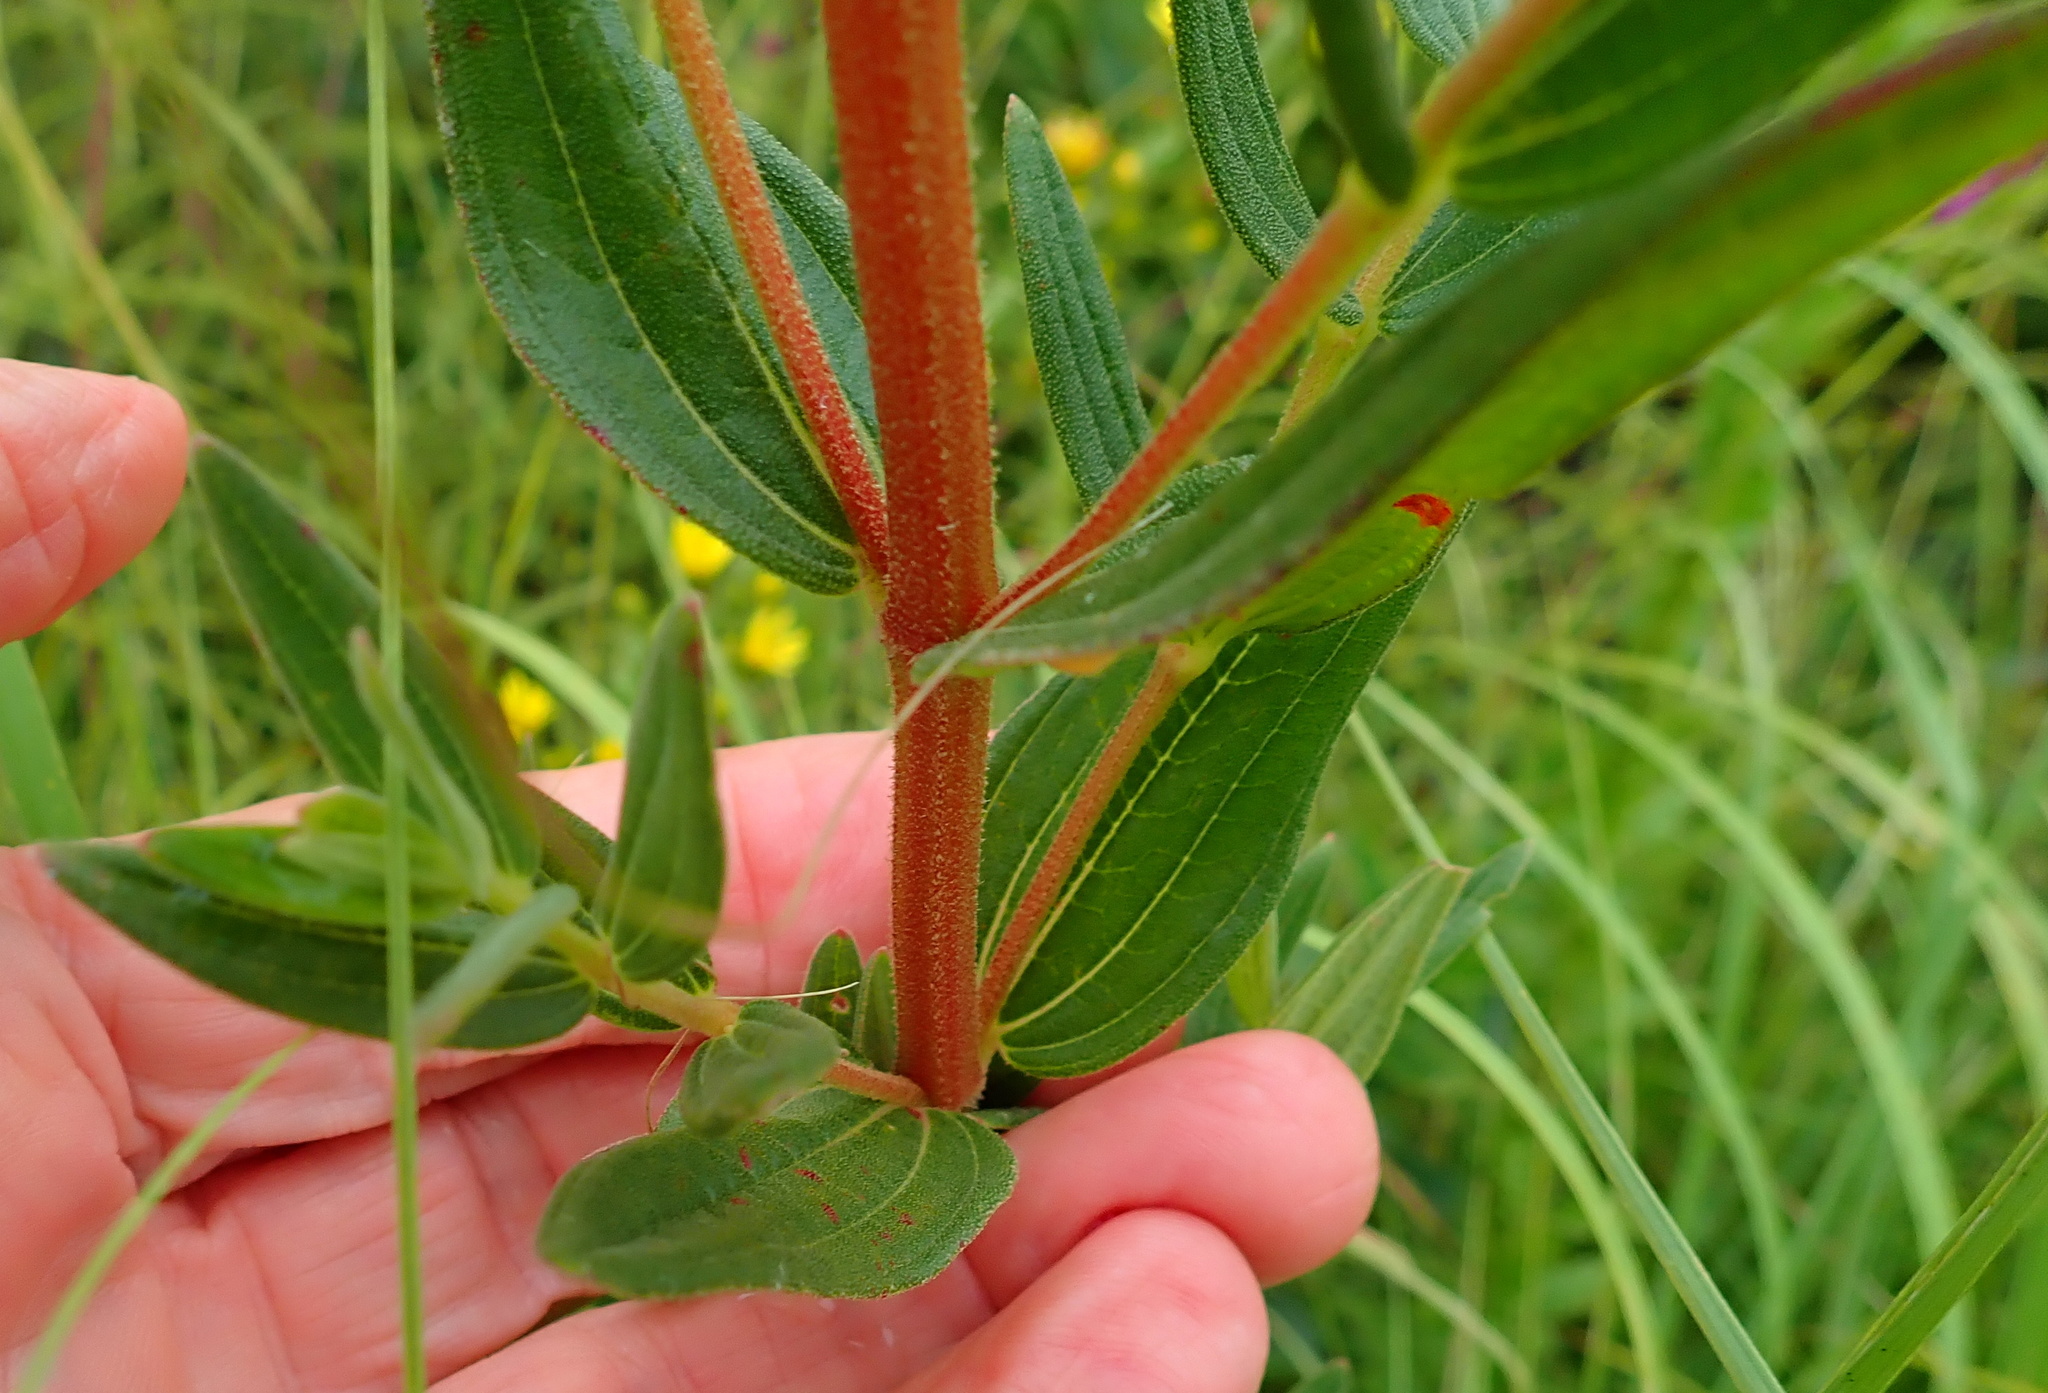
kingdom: Plantae
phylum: Tracheophyta
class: Magnoliopsida
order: Myrtales
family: Melastomataceae
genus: Argyrella
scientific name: Argyrella canescens
